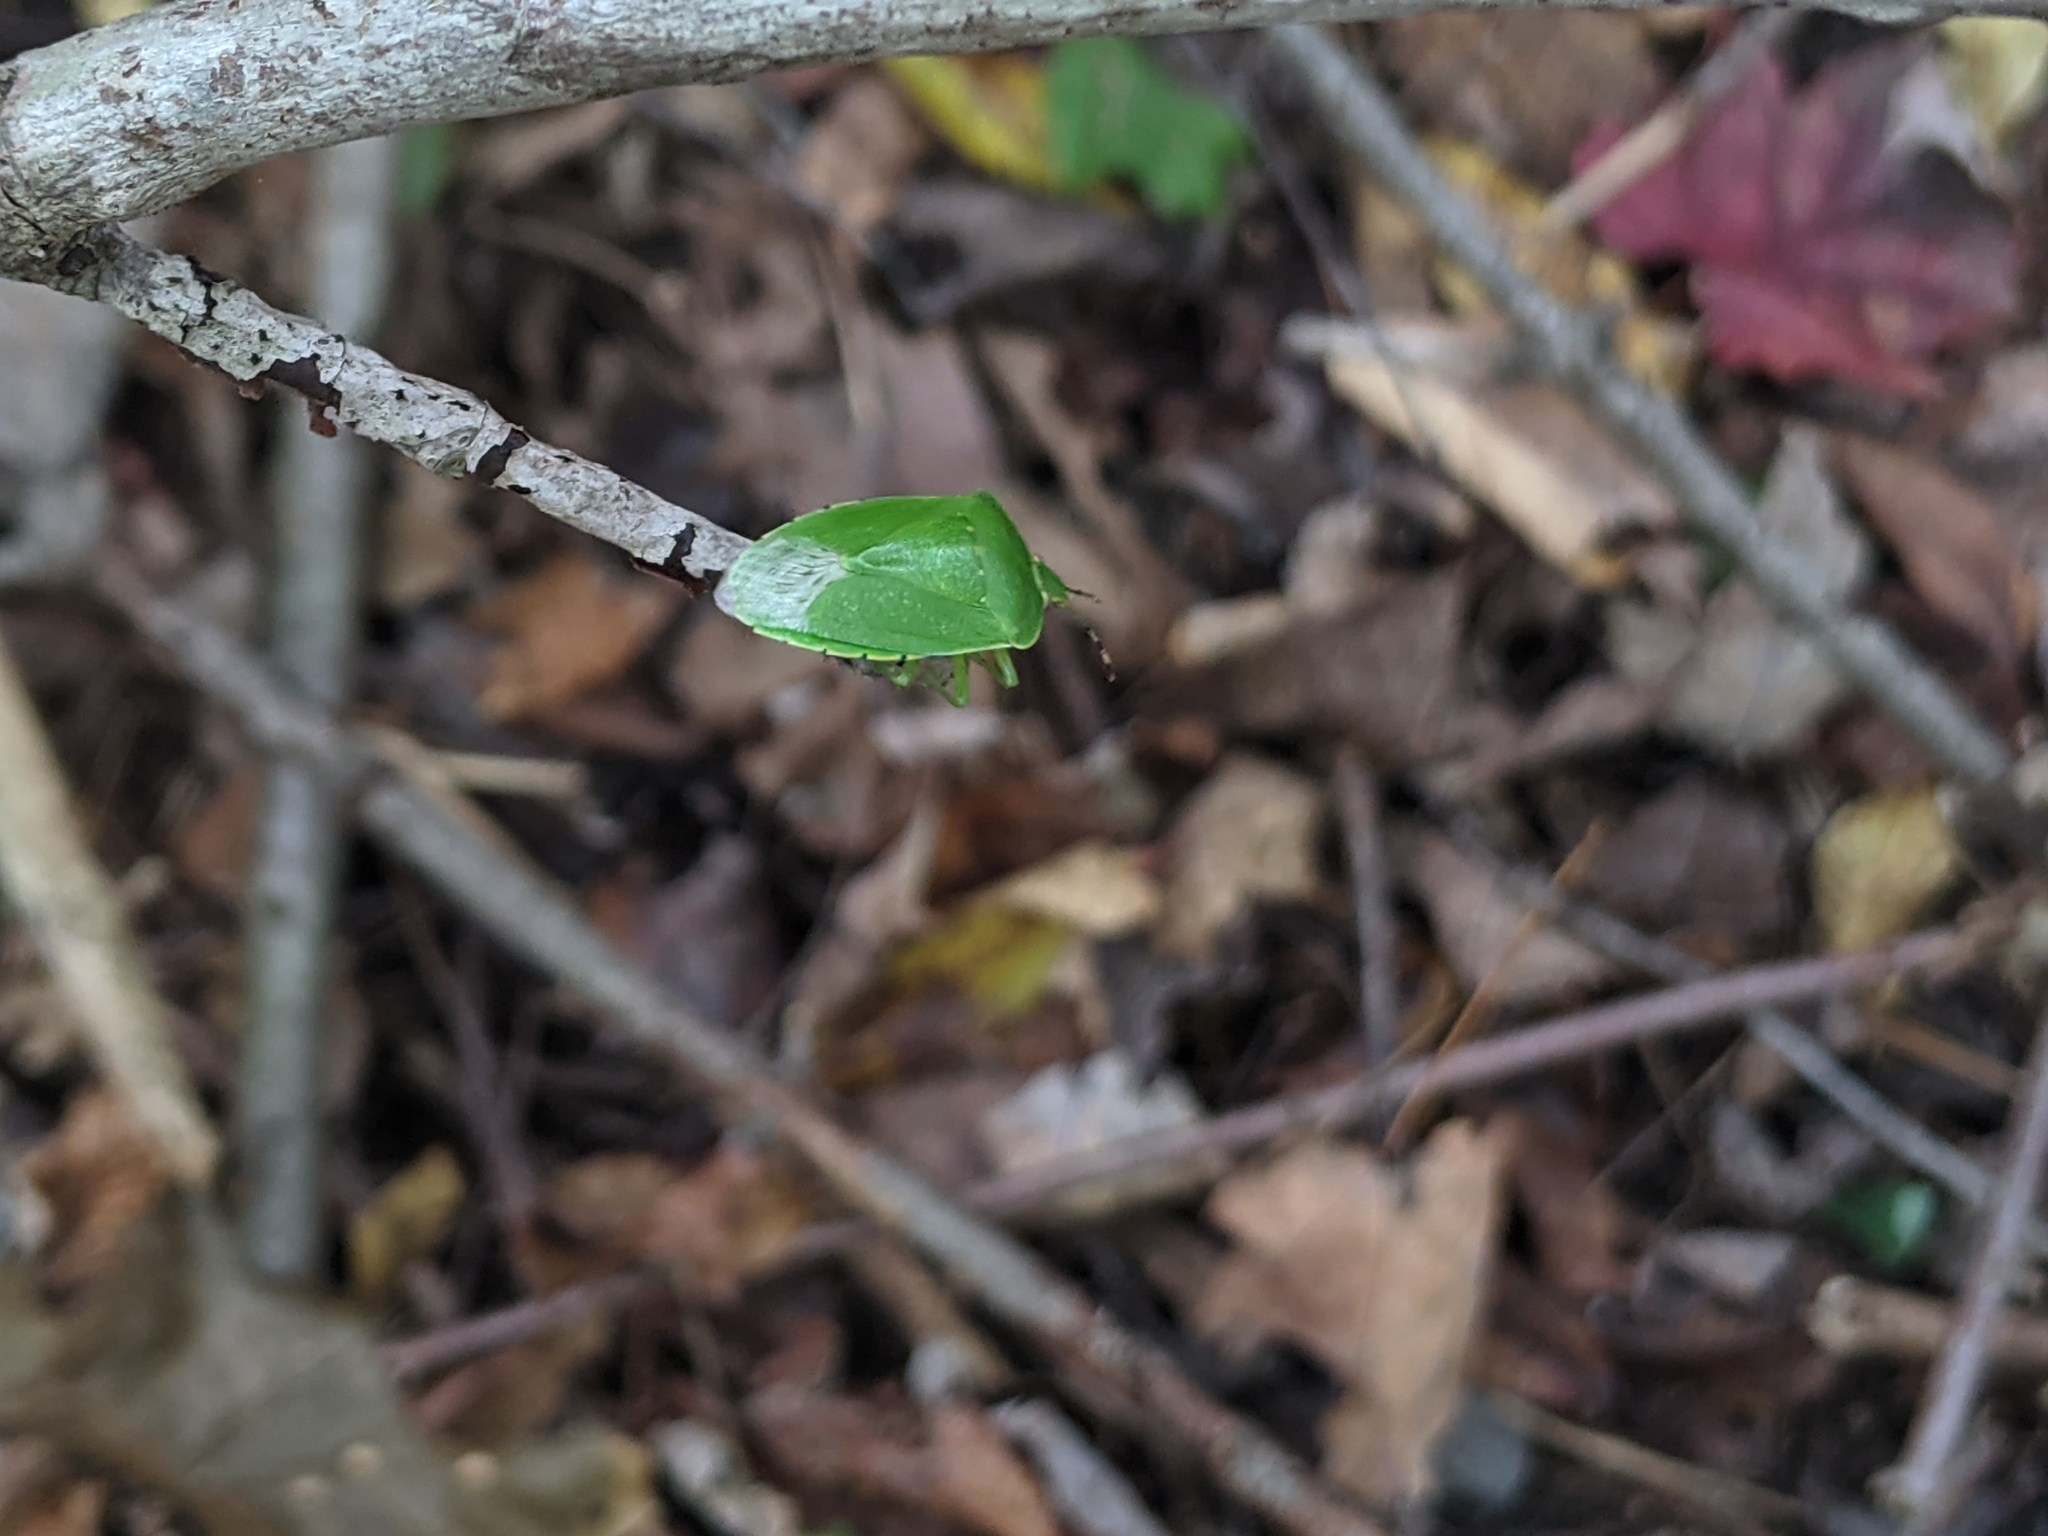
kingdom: Animalia
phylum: Arthropoda
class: Insecta
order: Hemiptera
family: Pentatomidae
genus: Chinavia
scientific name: Chinavia hilaris
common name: Green stink bug
